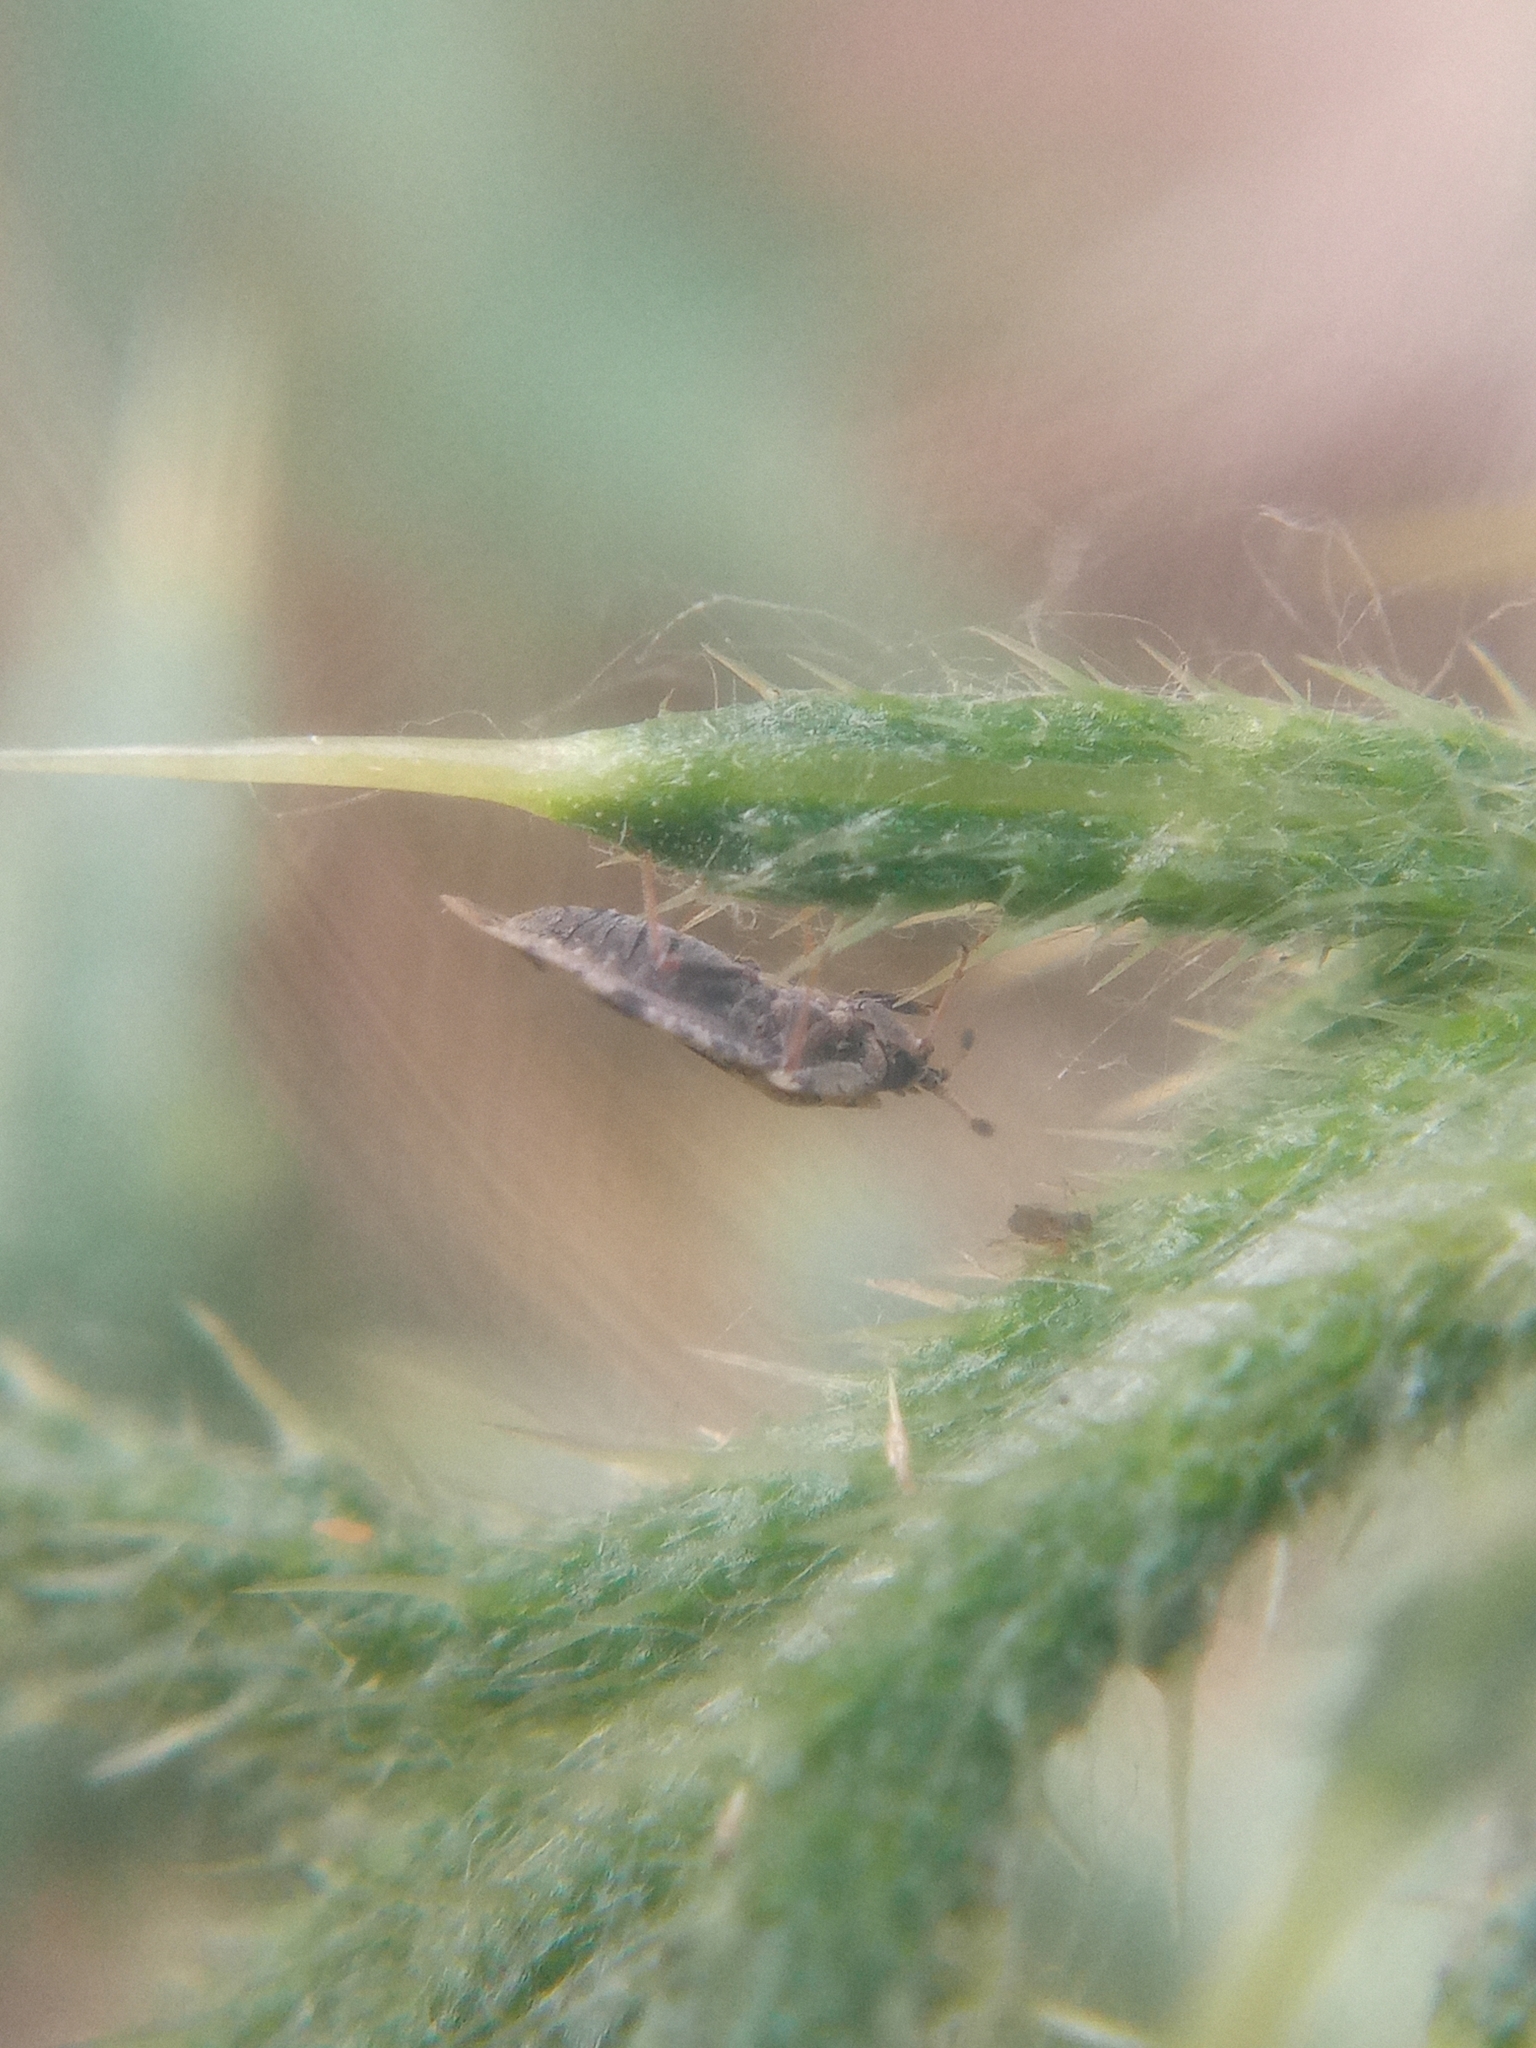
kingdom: Animalia
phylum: Arthropoda
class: Insecta
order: Hemiptera
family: Tingidae
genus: Tingis
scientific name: Tingis cardui
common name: Spear thistle lacebug
